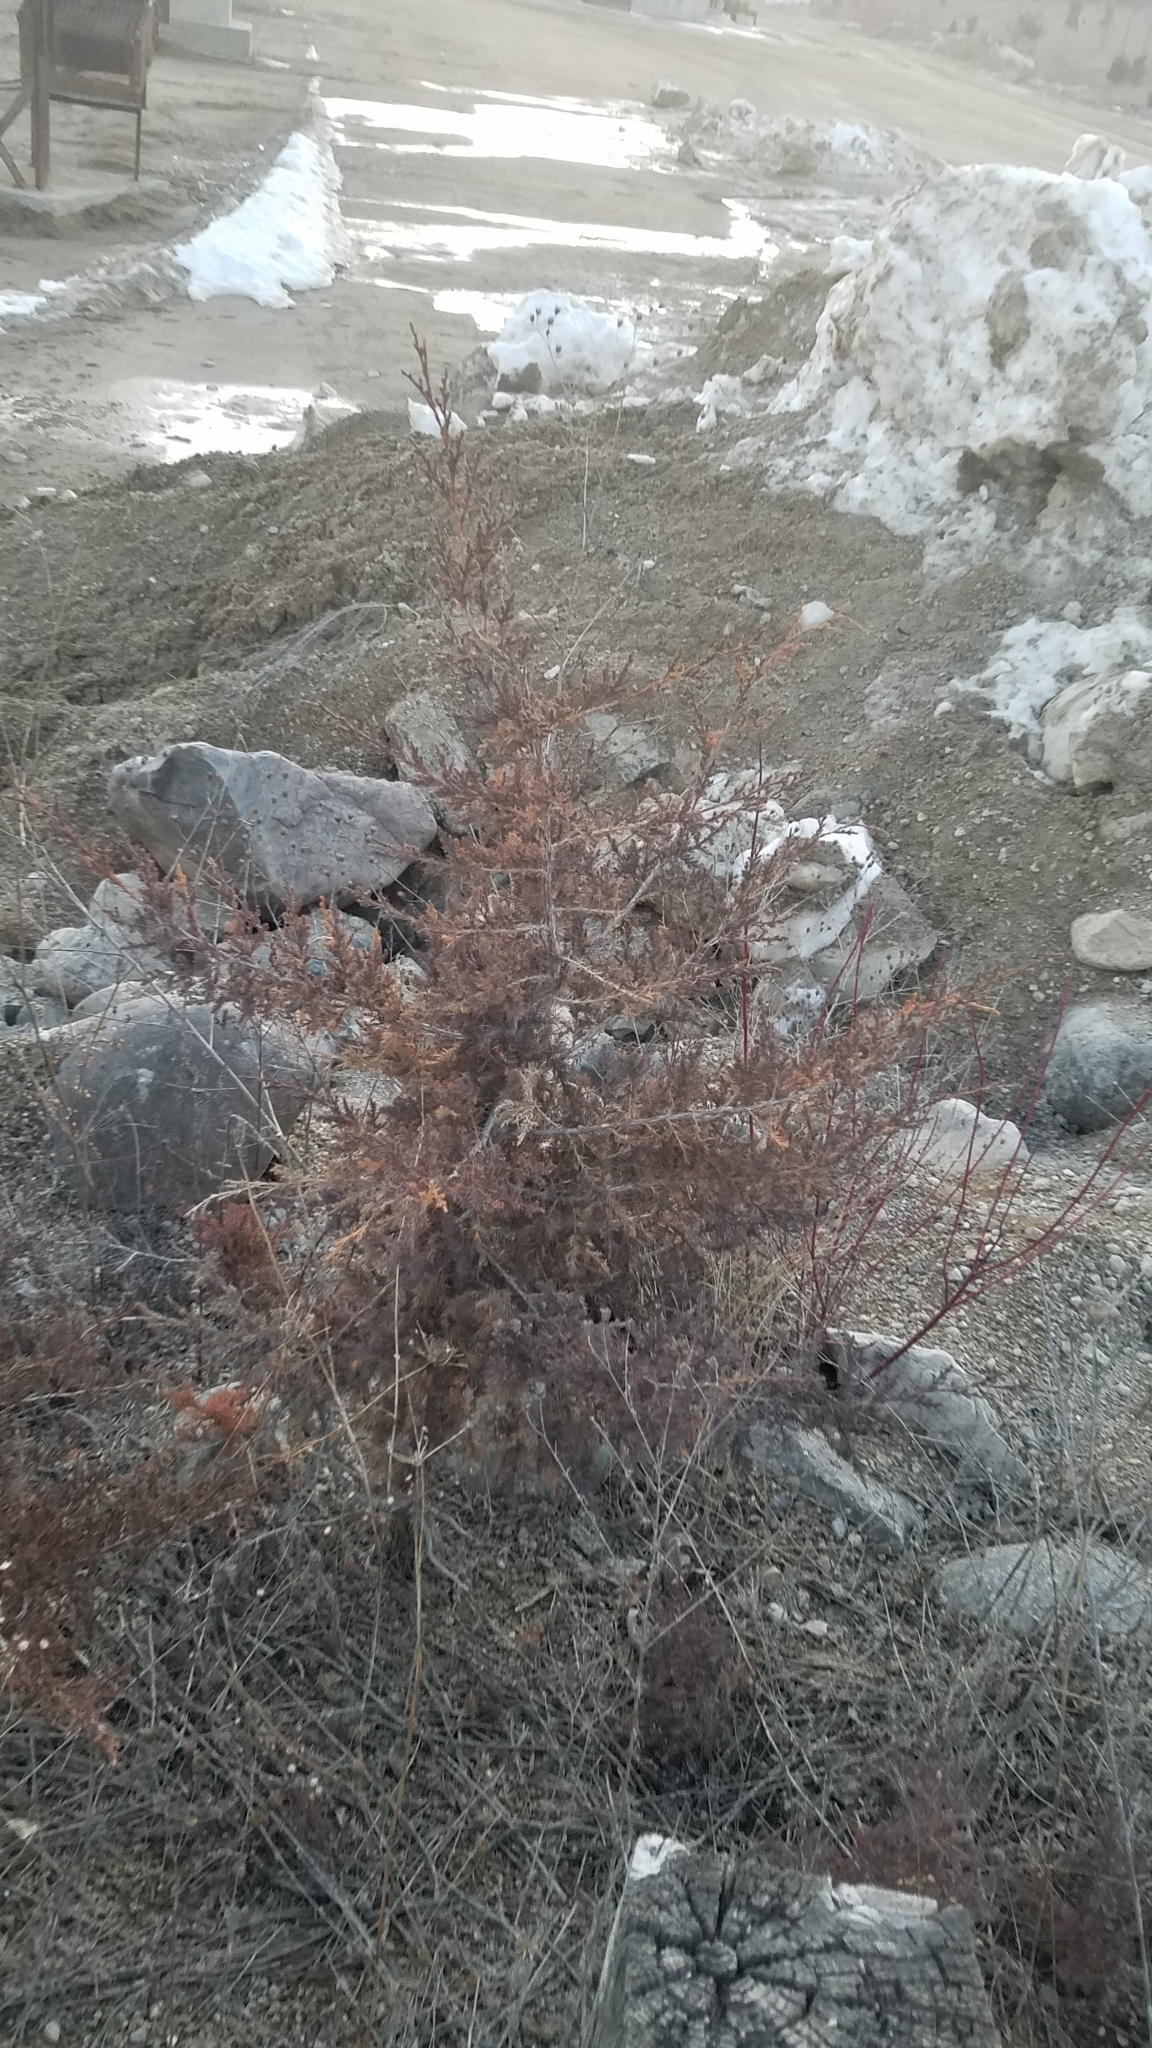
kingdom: Plantae
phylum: Tracheophyta
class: Pinopsida
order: Pinales
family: Cupressaceae
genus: Juniperus
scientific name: Juniperus virginiana
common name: Red juniper
